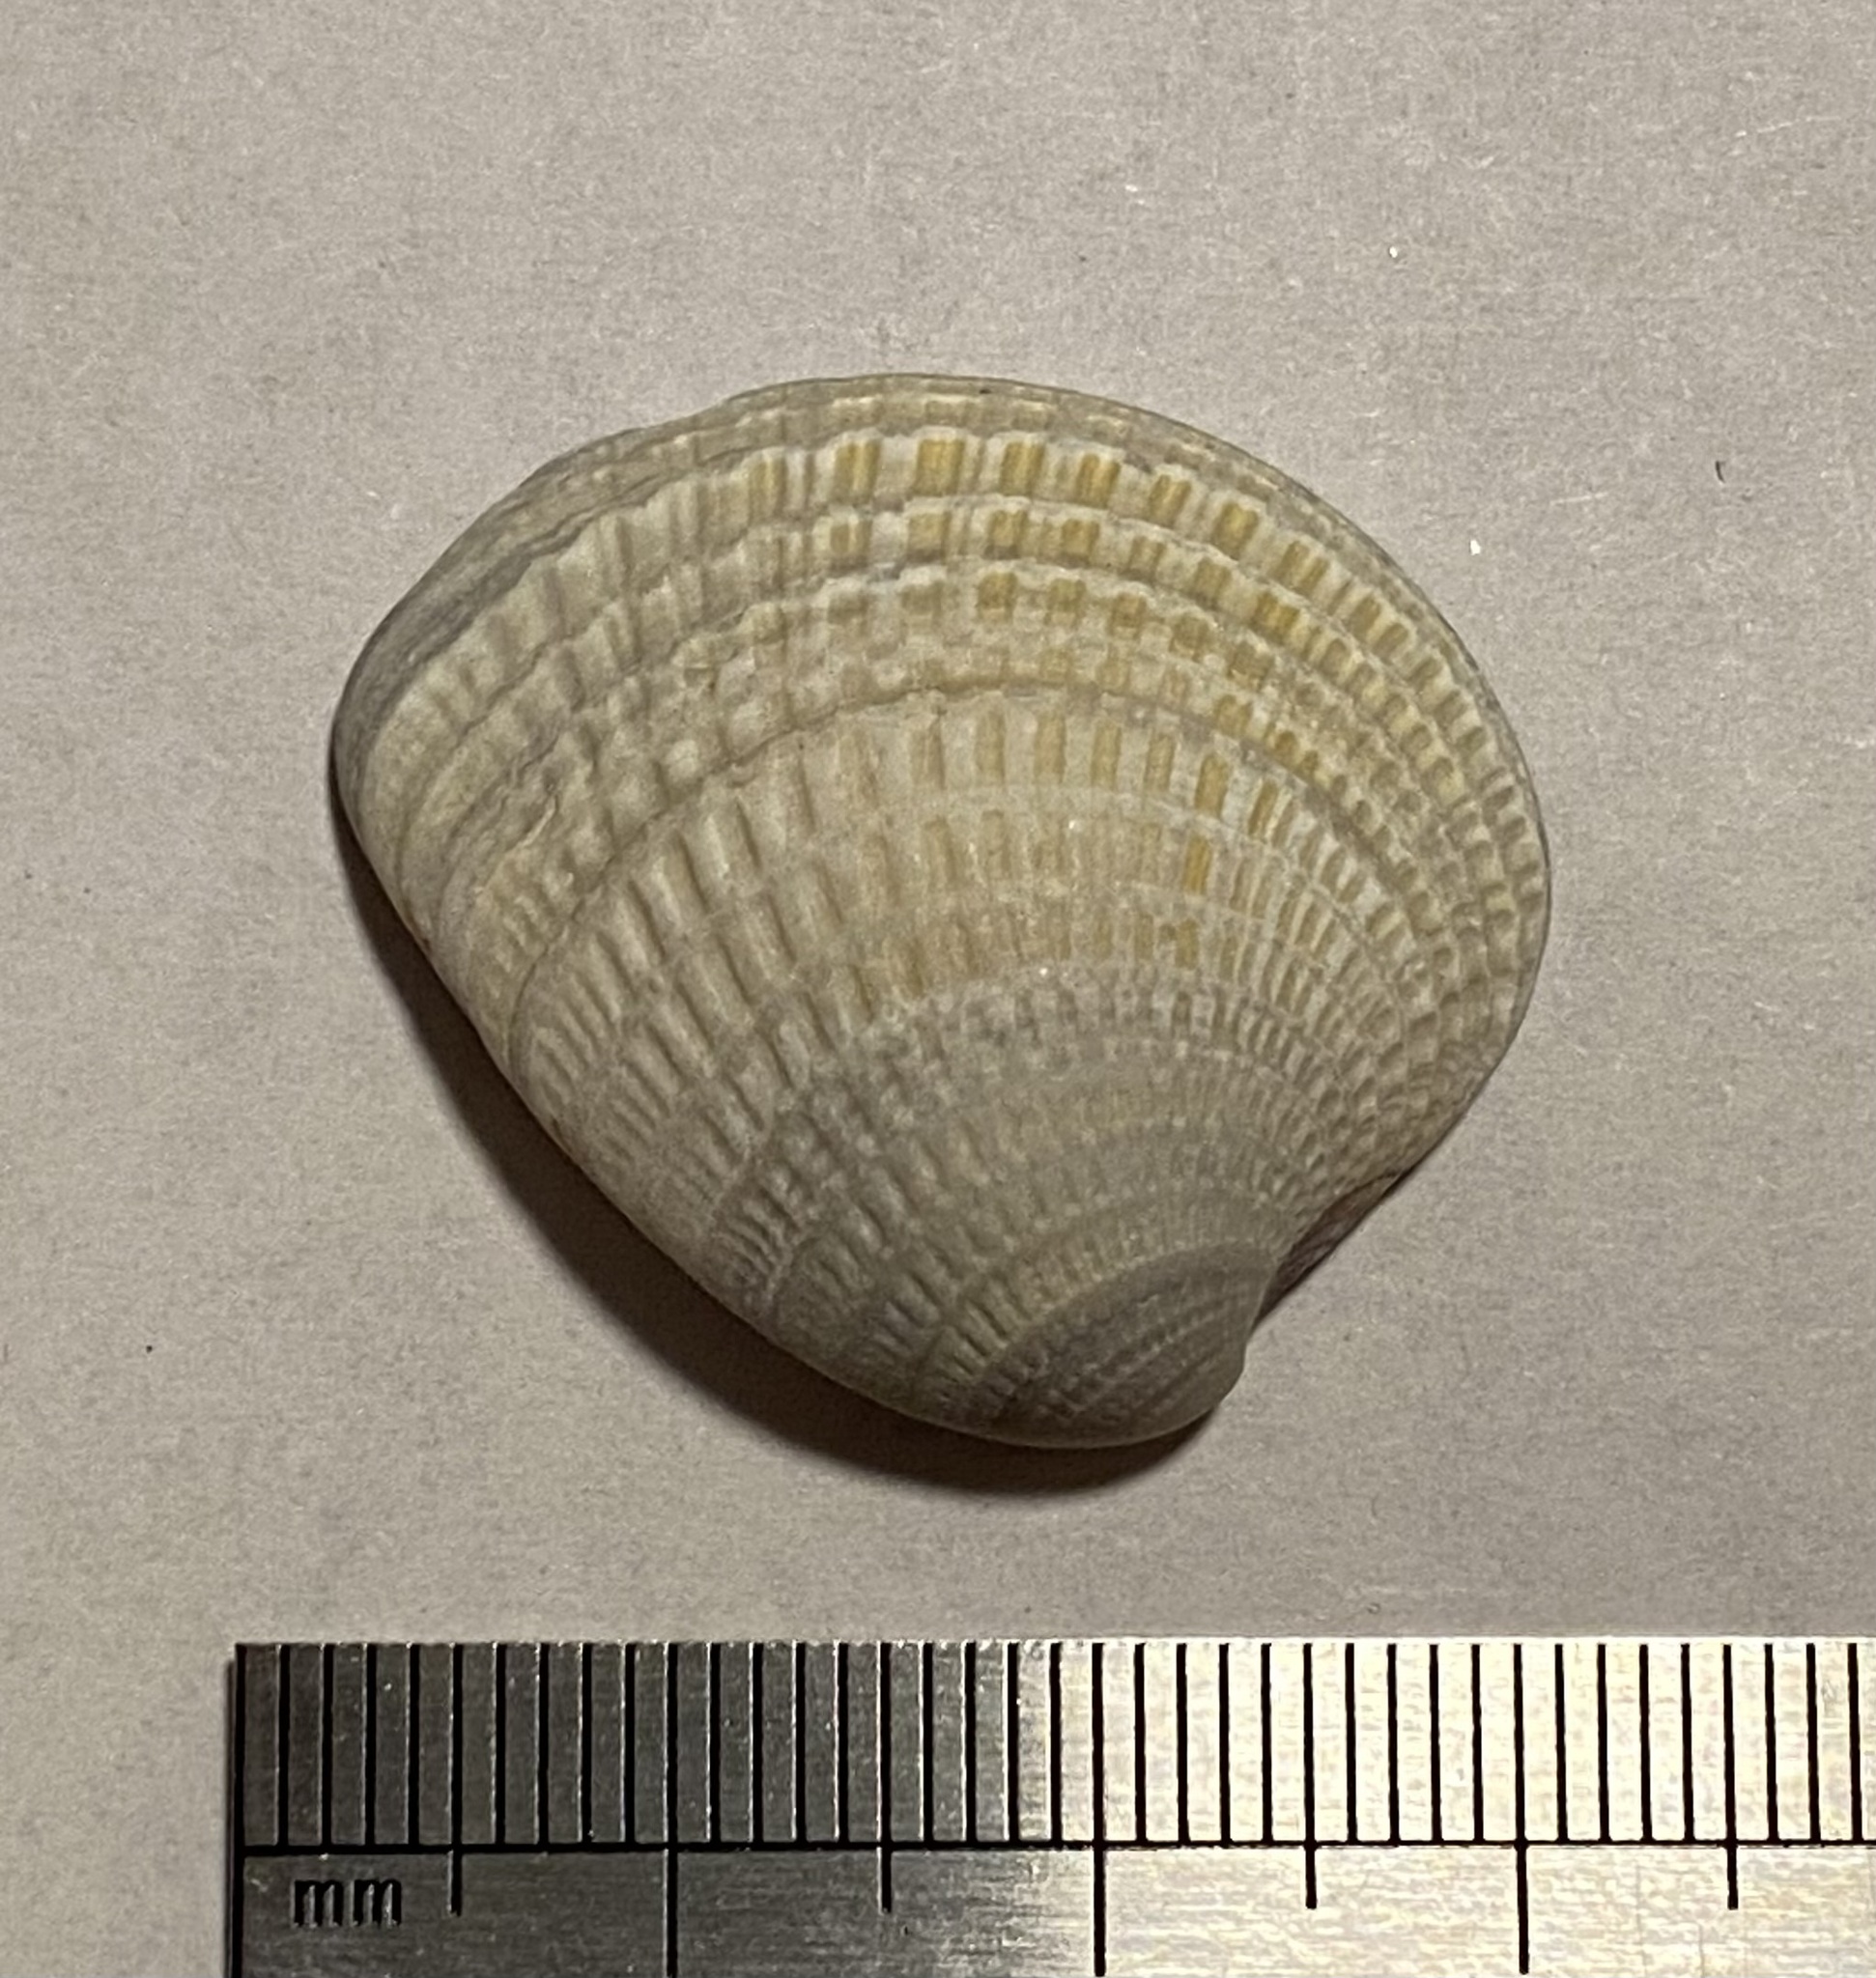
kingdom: Animalia
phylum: Mollusca
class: Bivalvia
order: Venerida
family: Veneridae
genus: Chione
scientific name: Chione elevata
